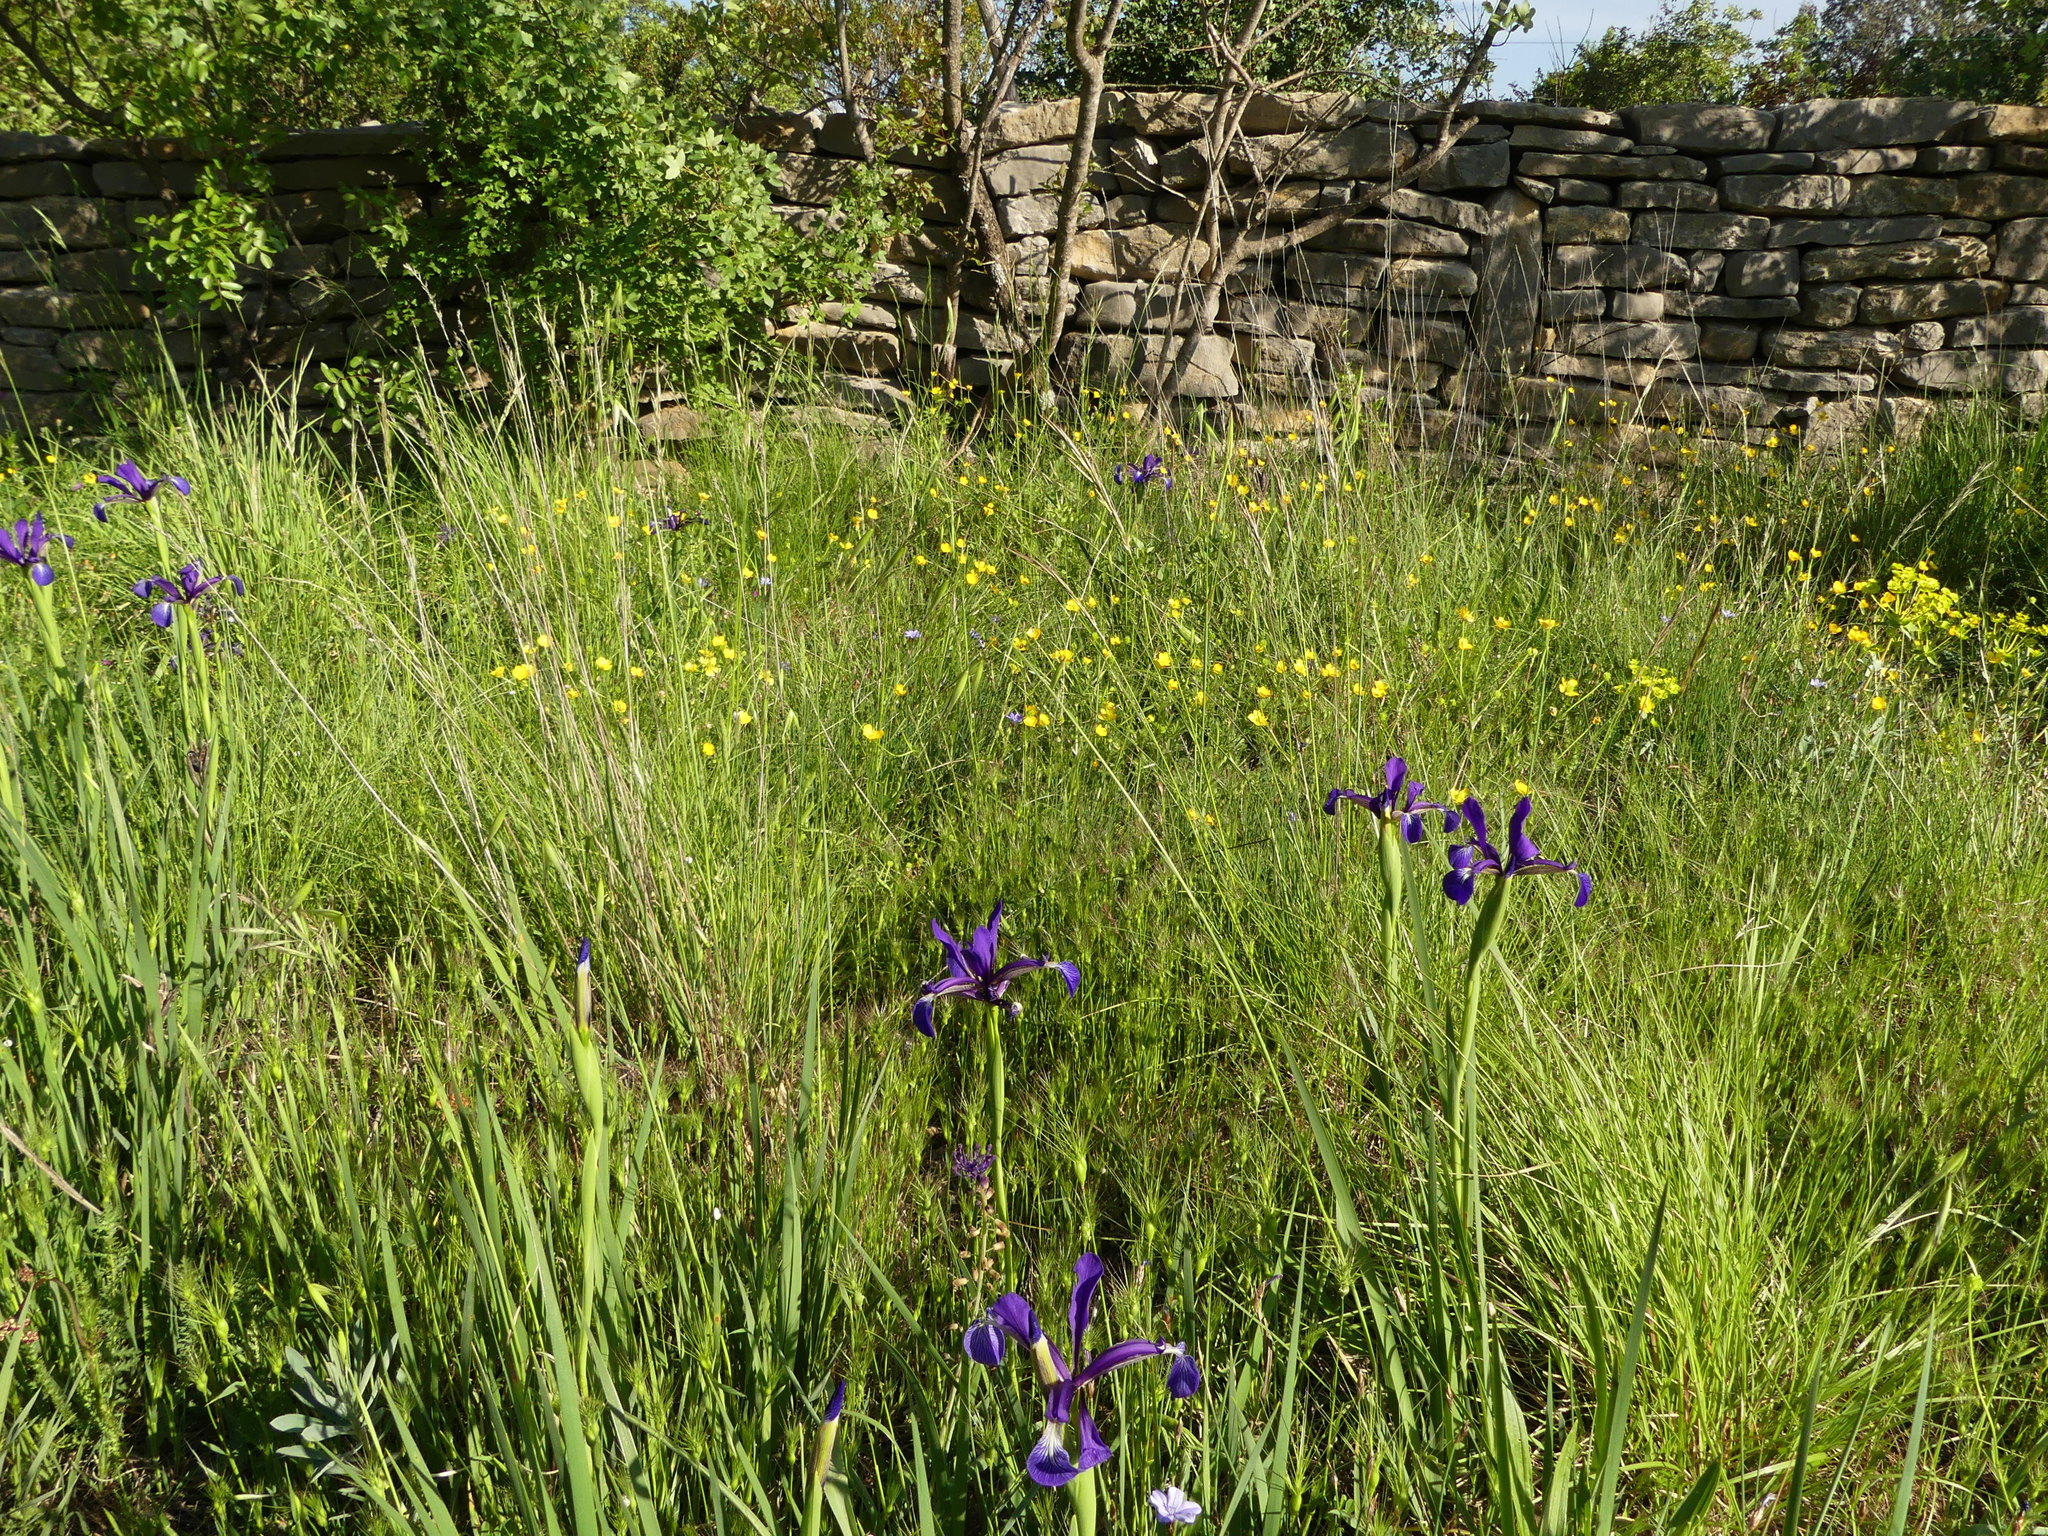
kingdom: Plantae
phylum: Tracheophyta
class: Liliopsida
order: Asparagales
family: Iridaceae
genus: Iris
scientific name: Iris reichenbachiana
